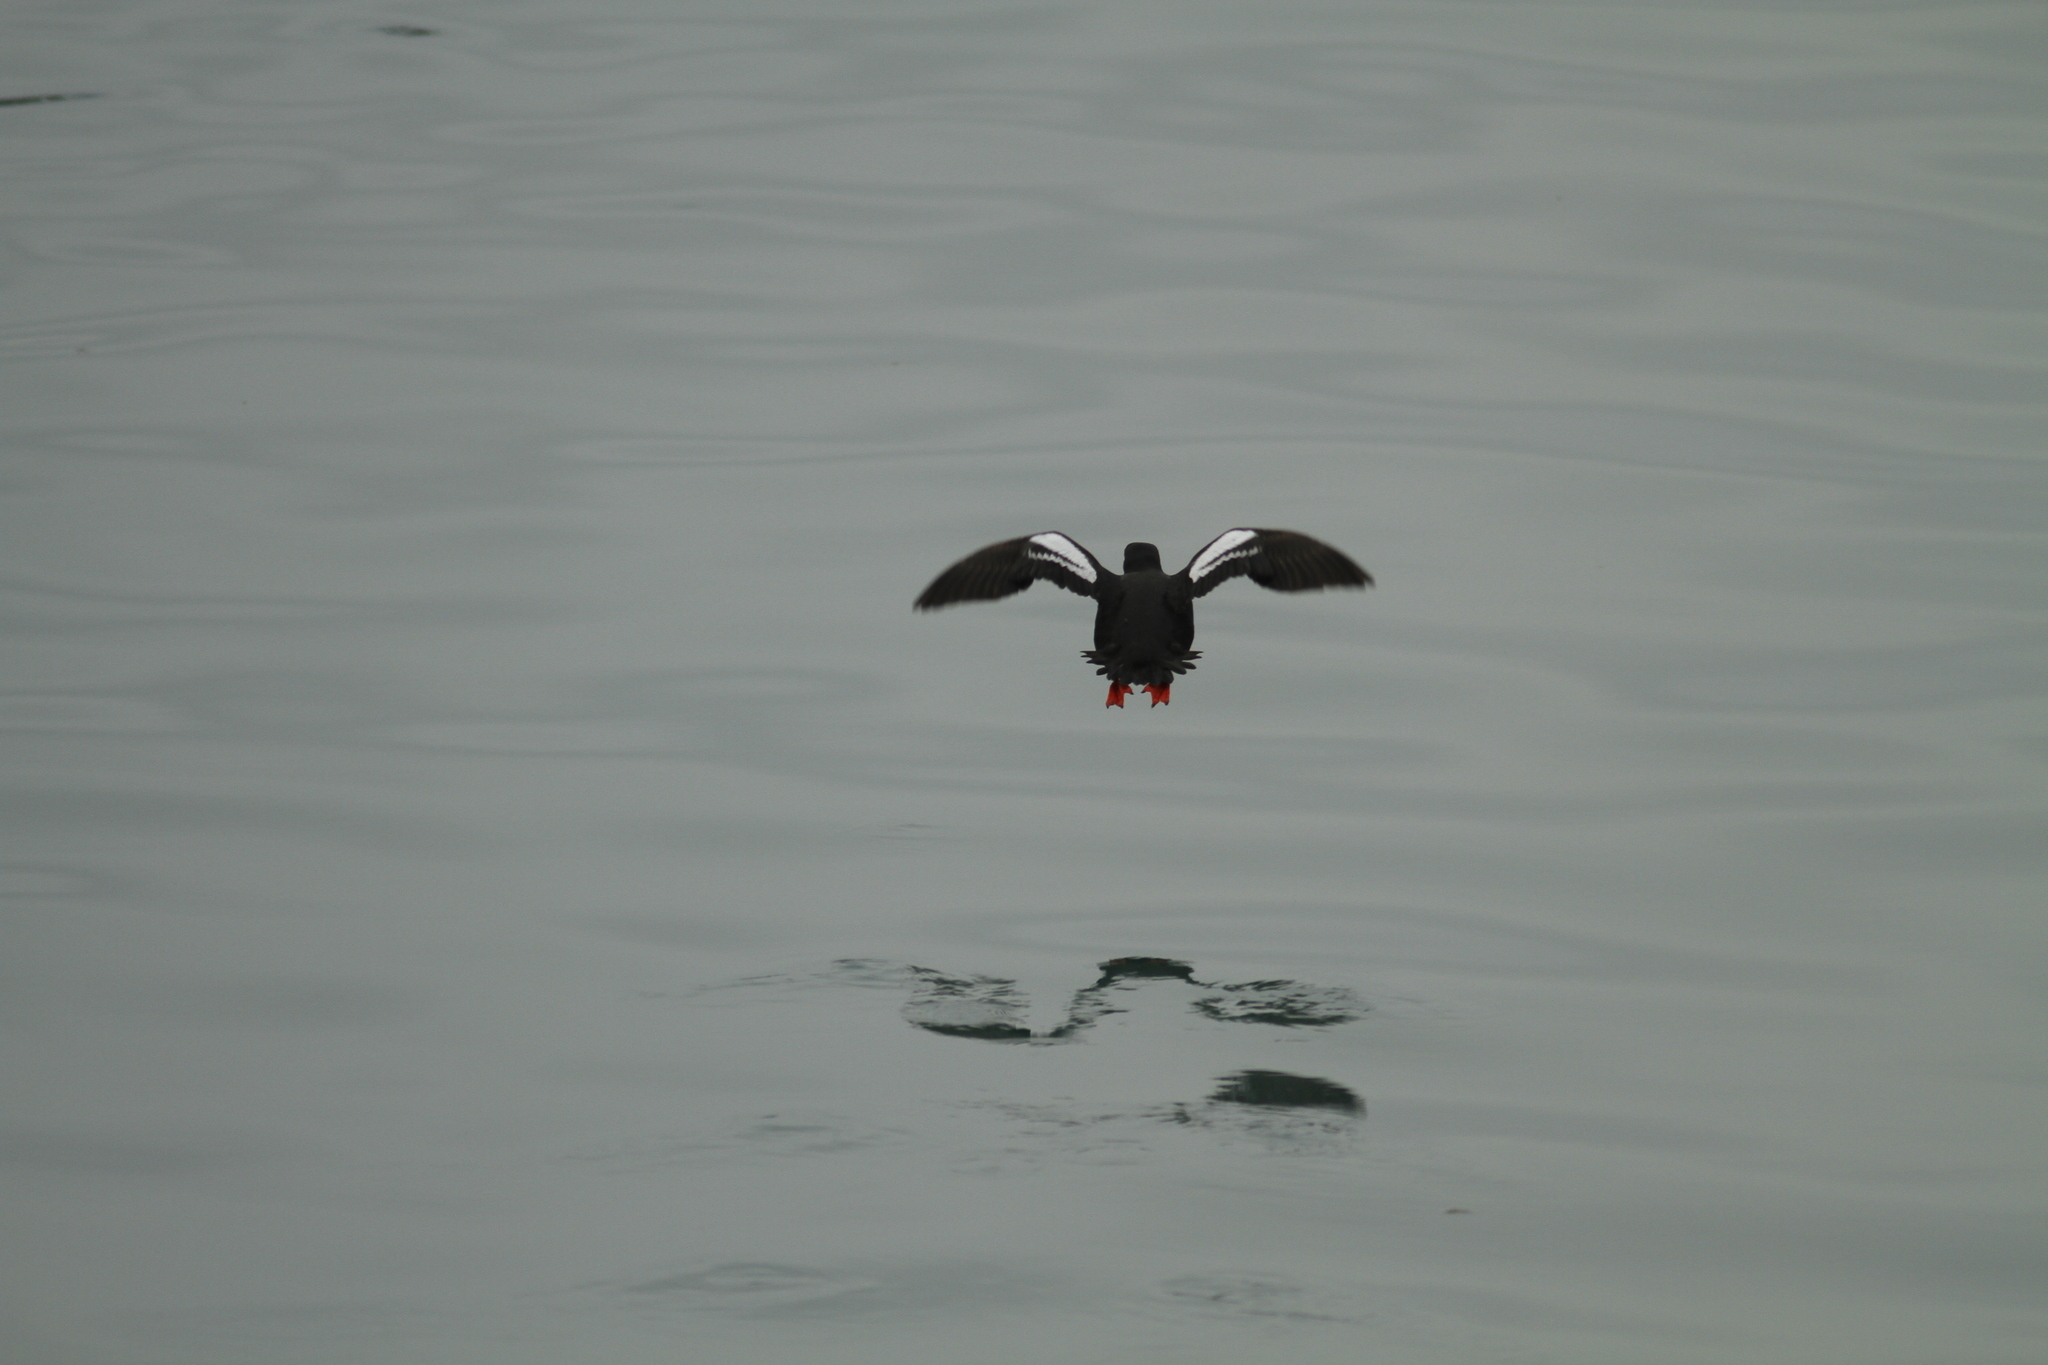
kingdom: Animalia
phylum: Chordata
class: Aves
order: Charadriiformes
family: Alcidae
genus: Cepphus
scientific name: Cepphus columba
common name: Pigeon guillemot
